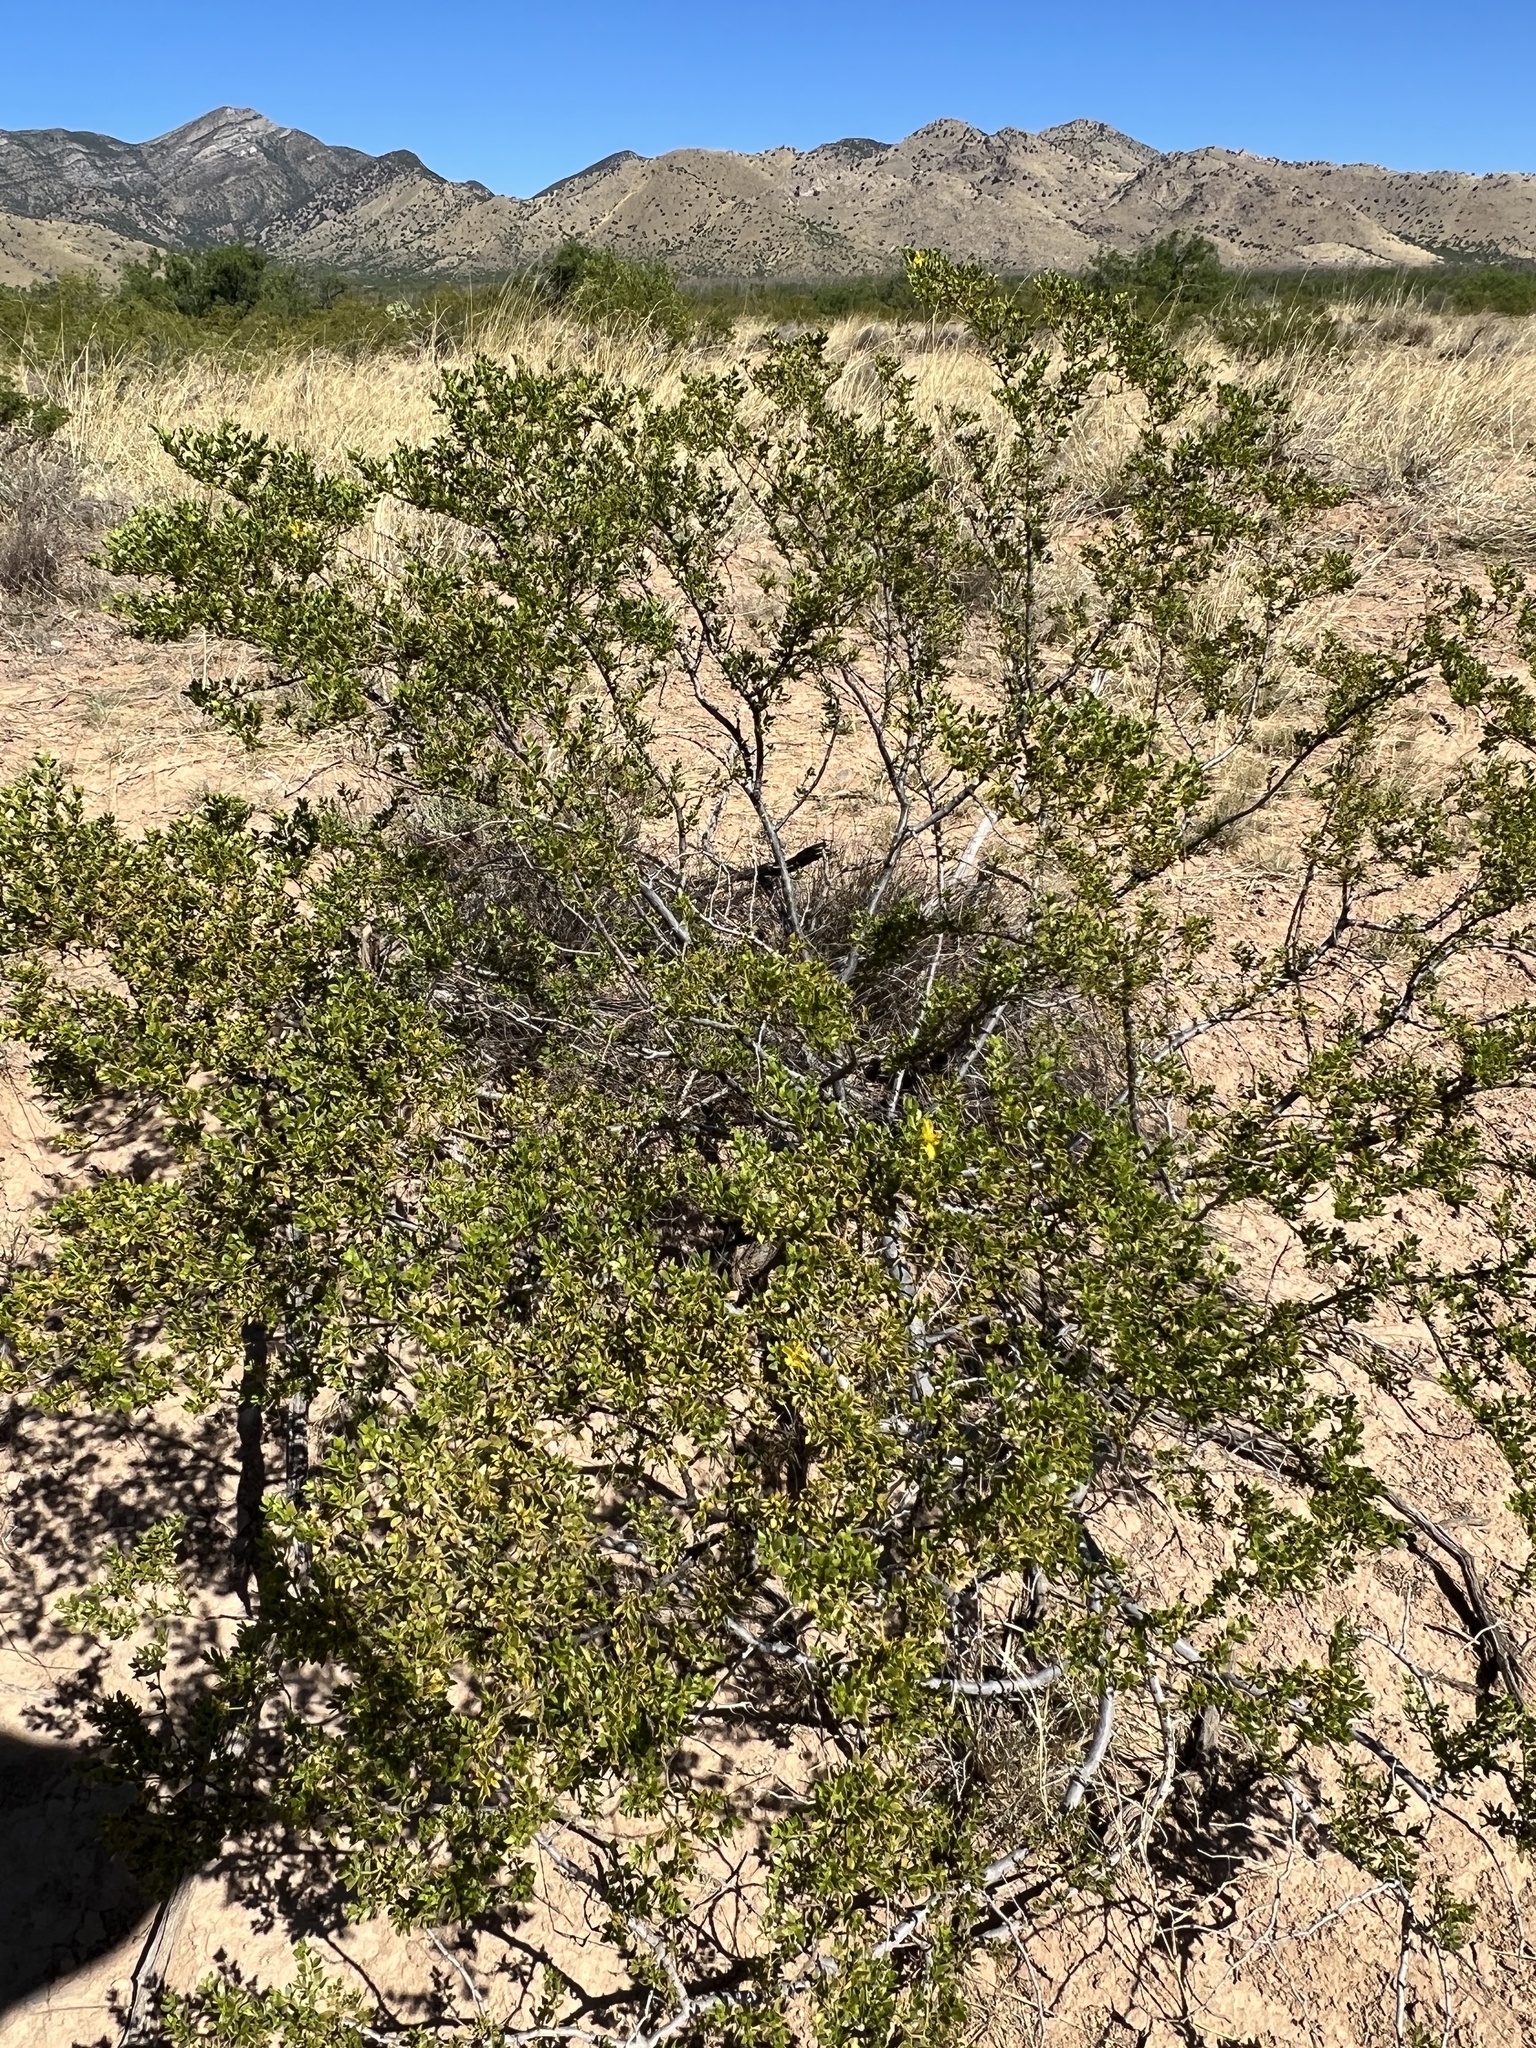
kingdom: Plantae
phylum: Tracheophyta
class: Magnoliopsida
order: Zygophyllales
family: Zygophyllaceae
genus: Larrea
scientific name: Larrea tridentata
